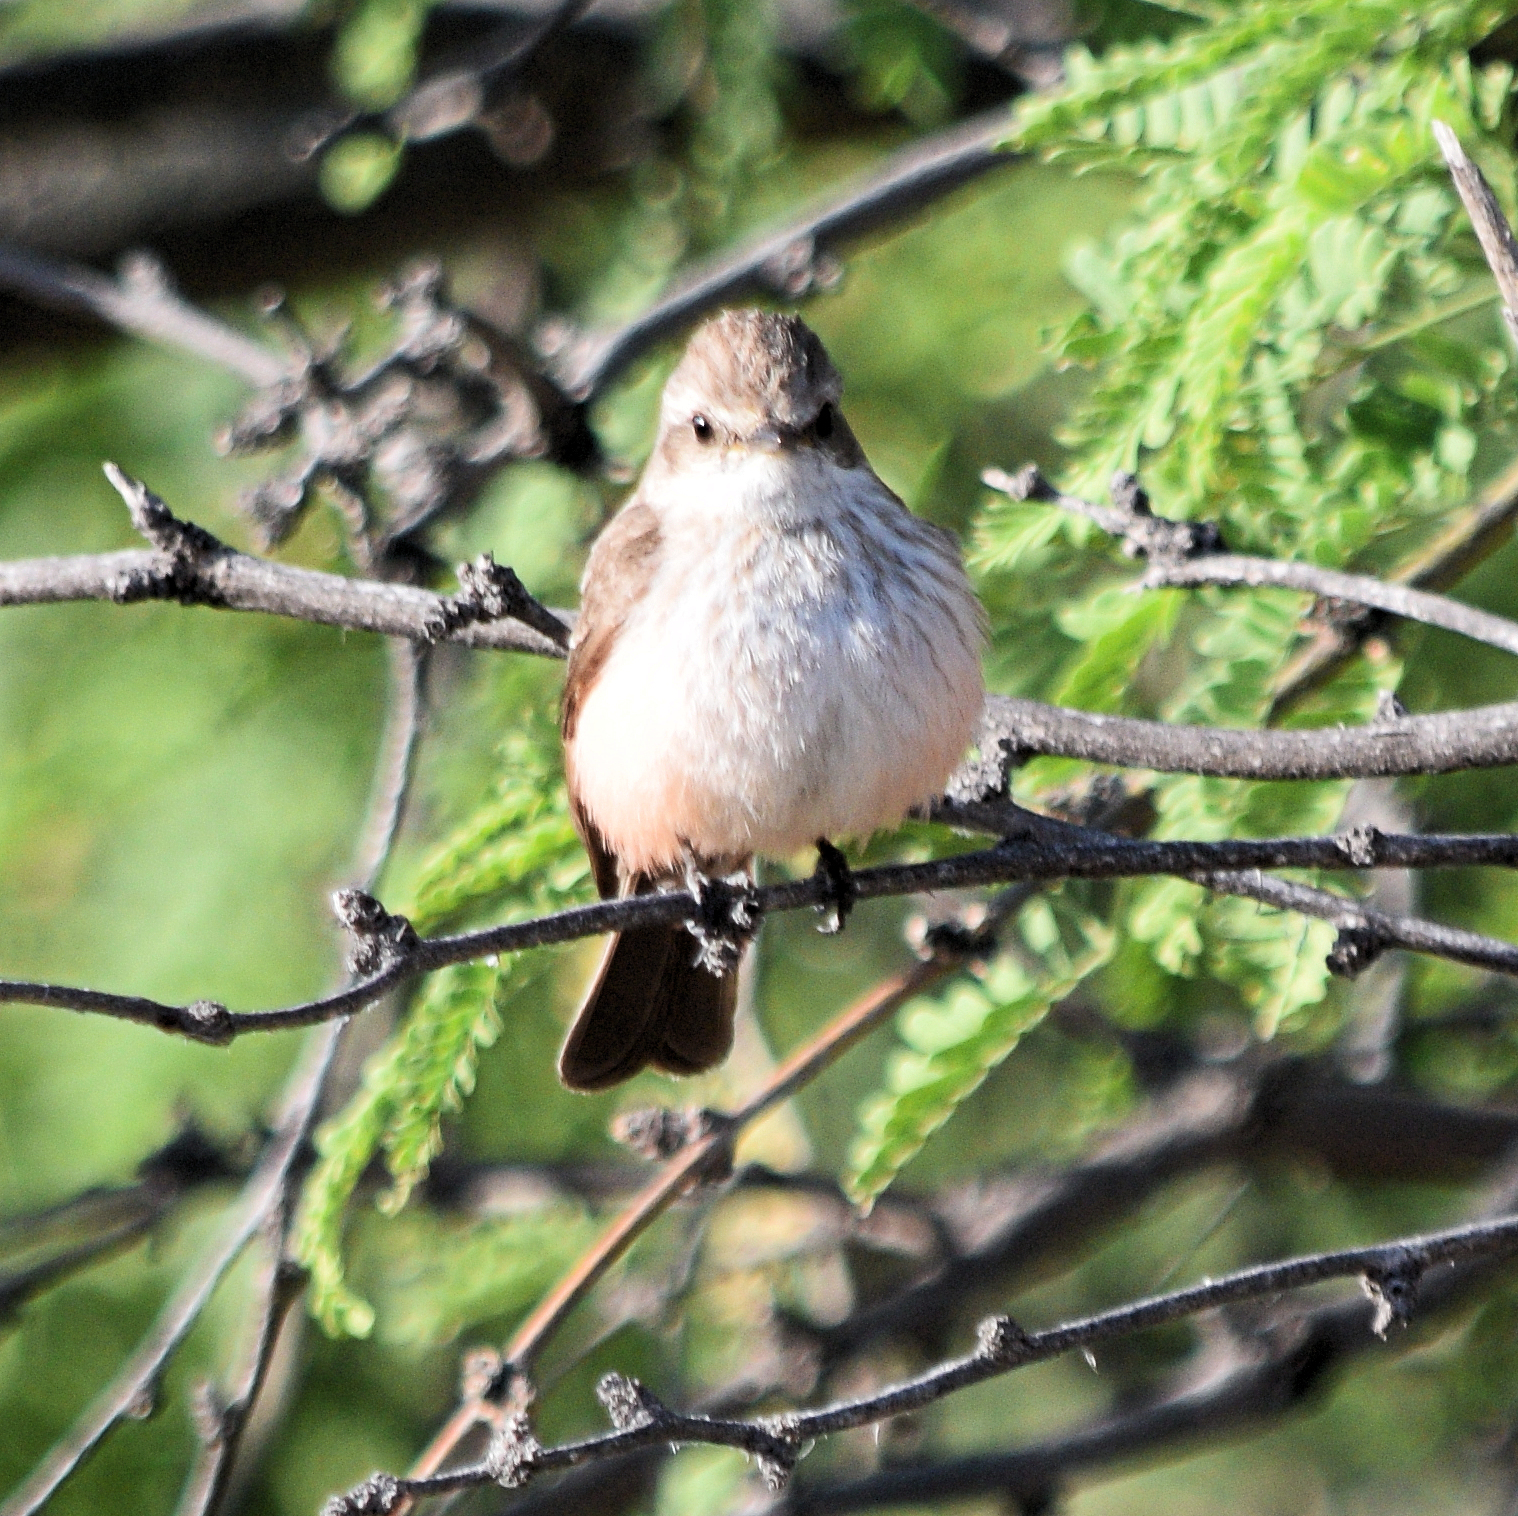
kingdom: Animalia
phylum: Chordata
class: Aves
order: Passeriformes
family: Tyrannidae
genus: Pyrocephalus
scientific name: Pyrocephalus rubinus
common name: Vermilion flycatcher
